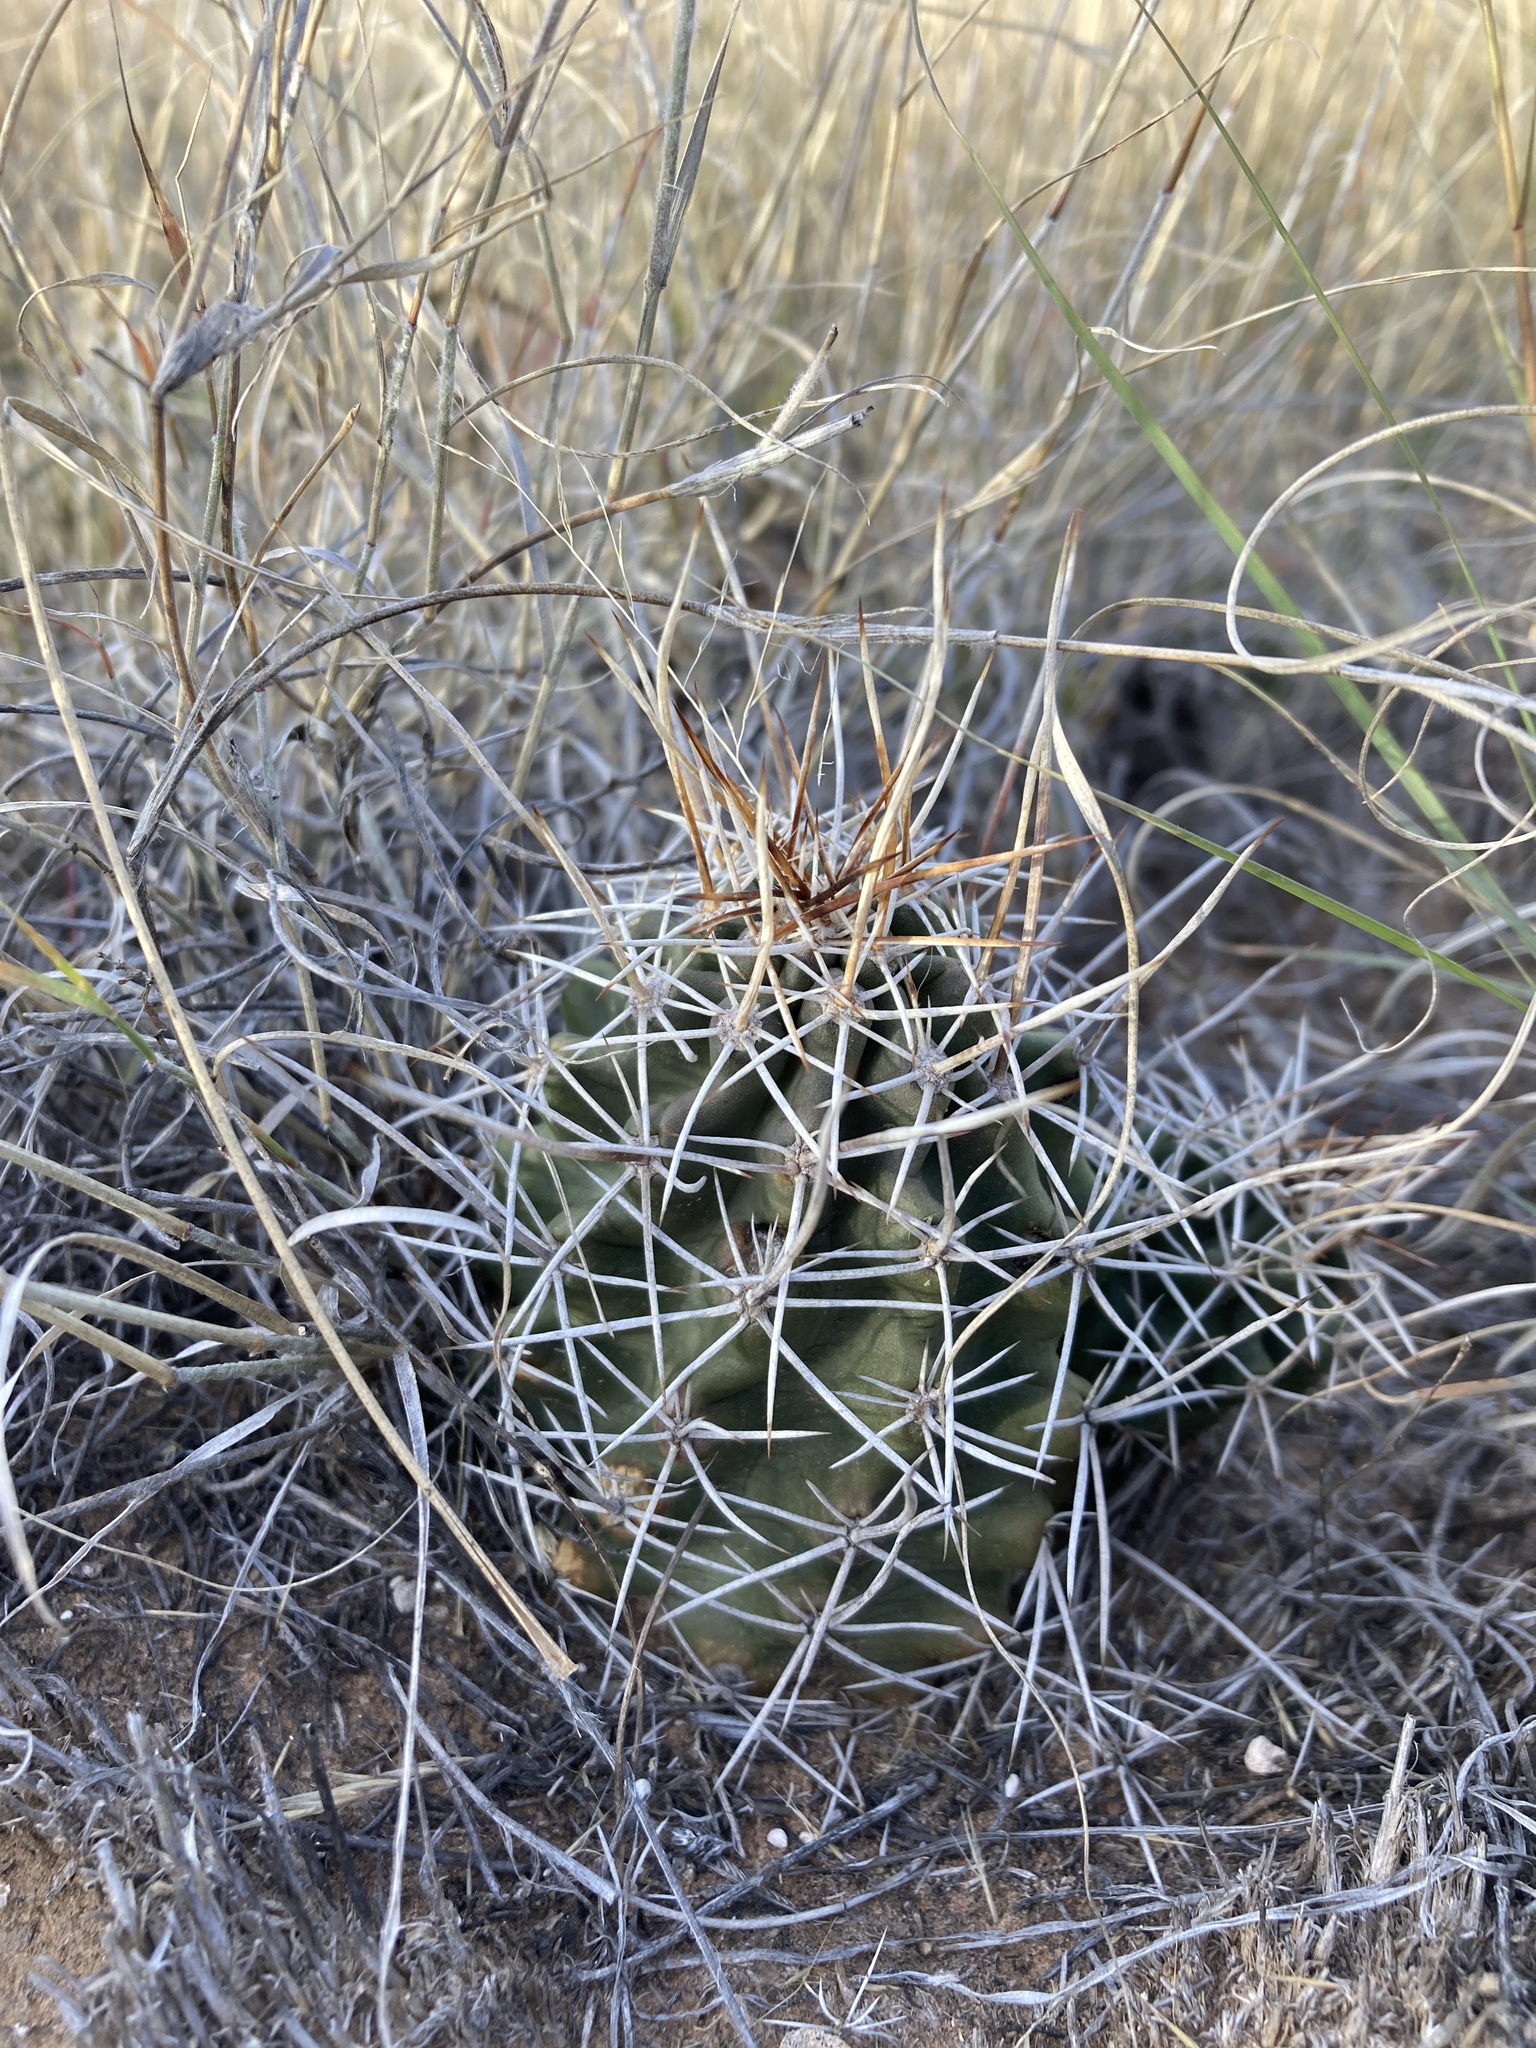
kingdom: Plantae
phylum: Tracheophyta
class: Magnoliopsida
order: Caryophyllales
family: Cactaceae
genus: Echinocereus
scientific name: Echinocereus fendleri
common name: Fendler's hedgehog cactus
